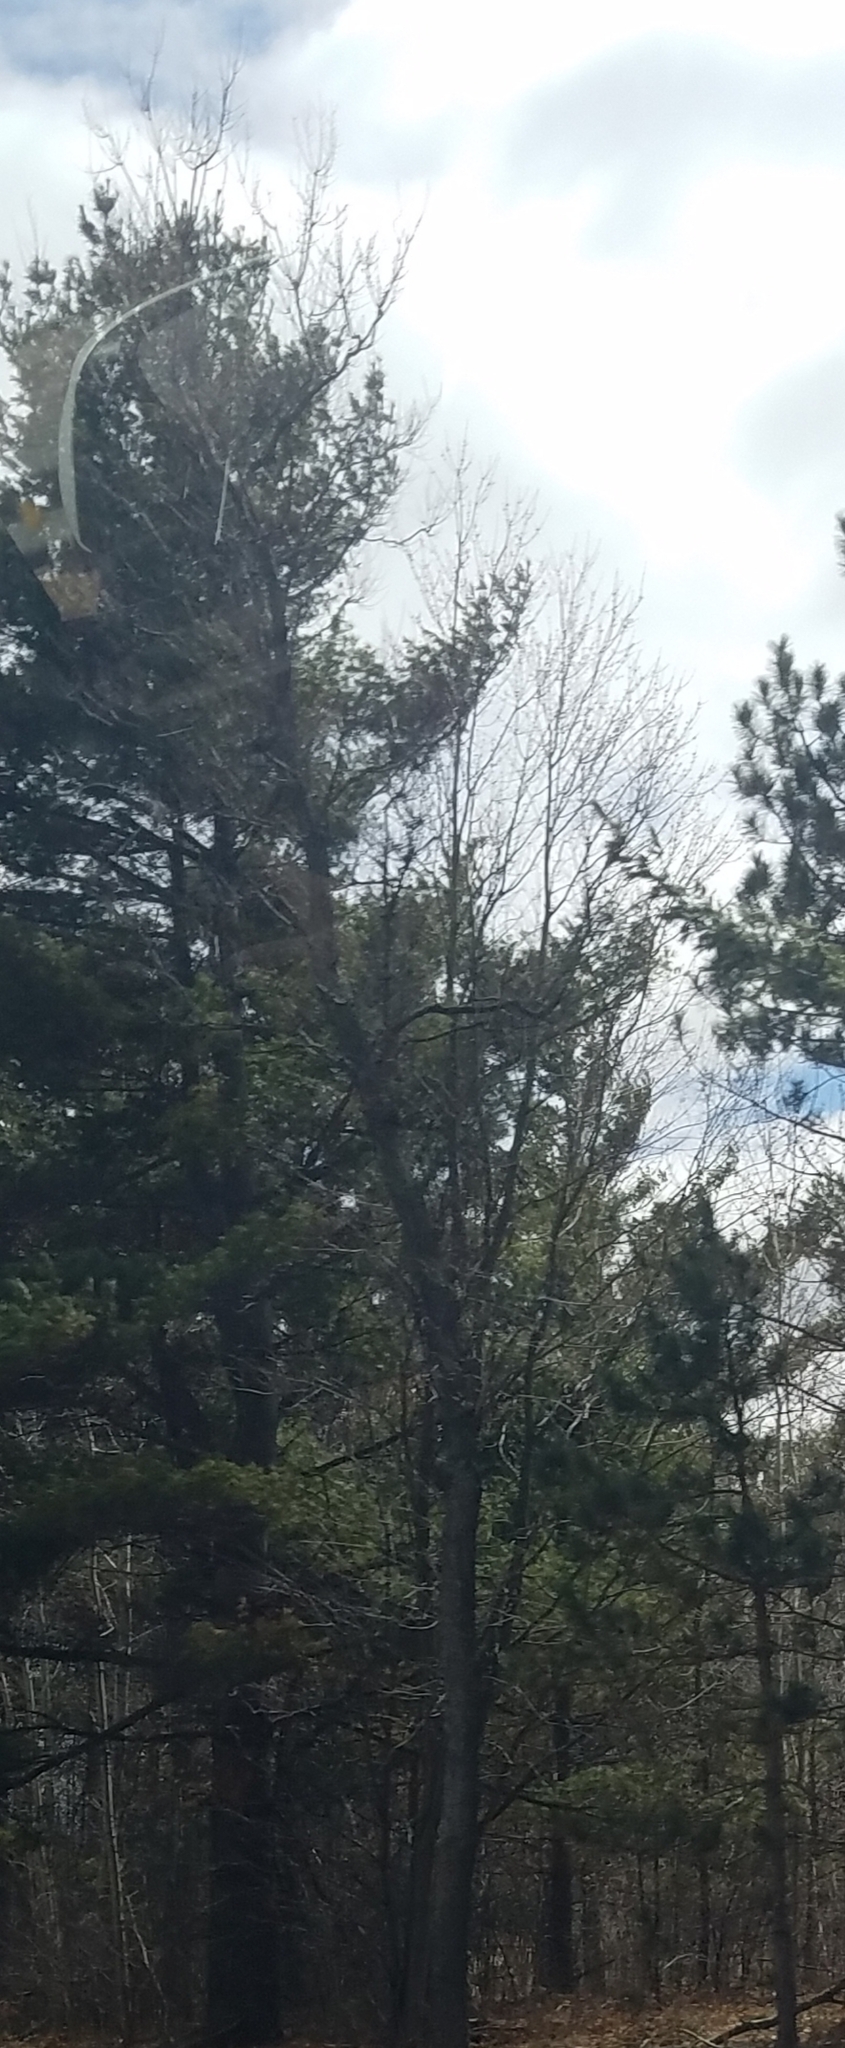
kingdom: Plantae
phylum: Tracheophyta
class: Pinopsida
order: Pinales
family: Pinaceae
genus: Pinus
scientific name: Pinus strobus
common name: Weymouth pine
